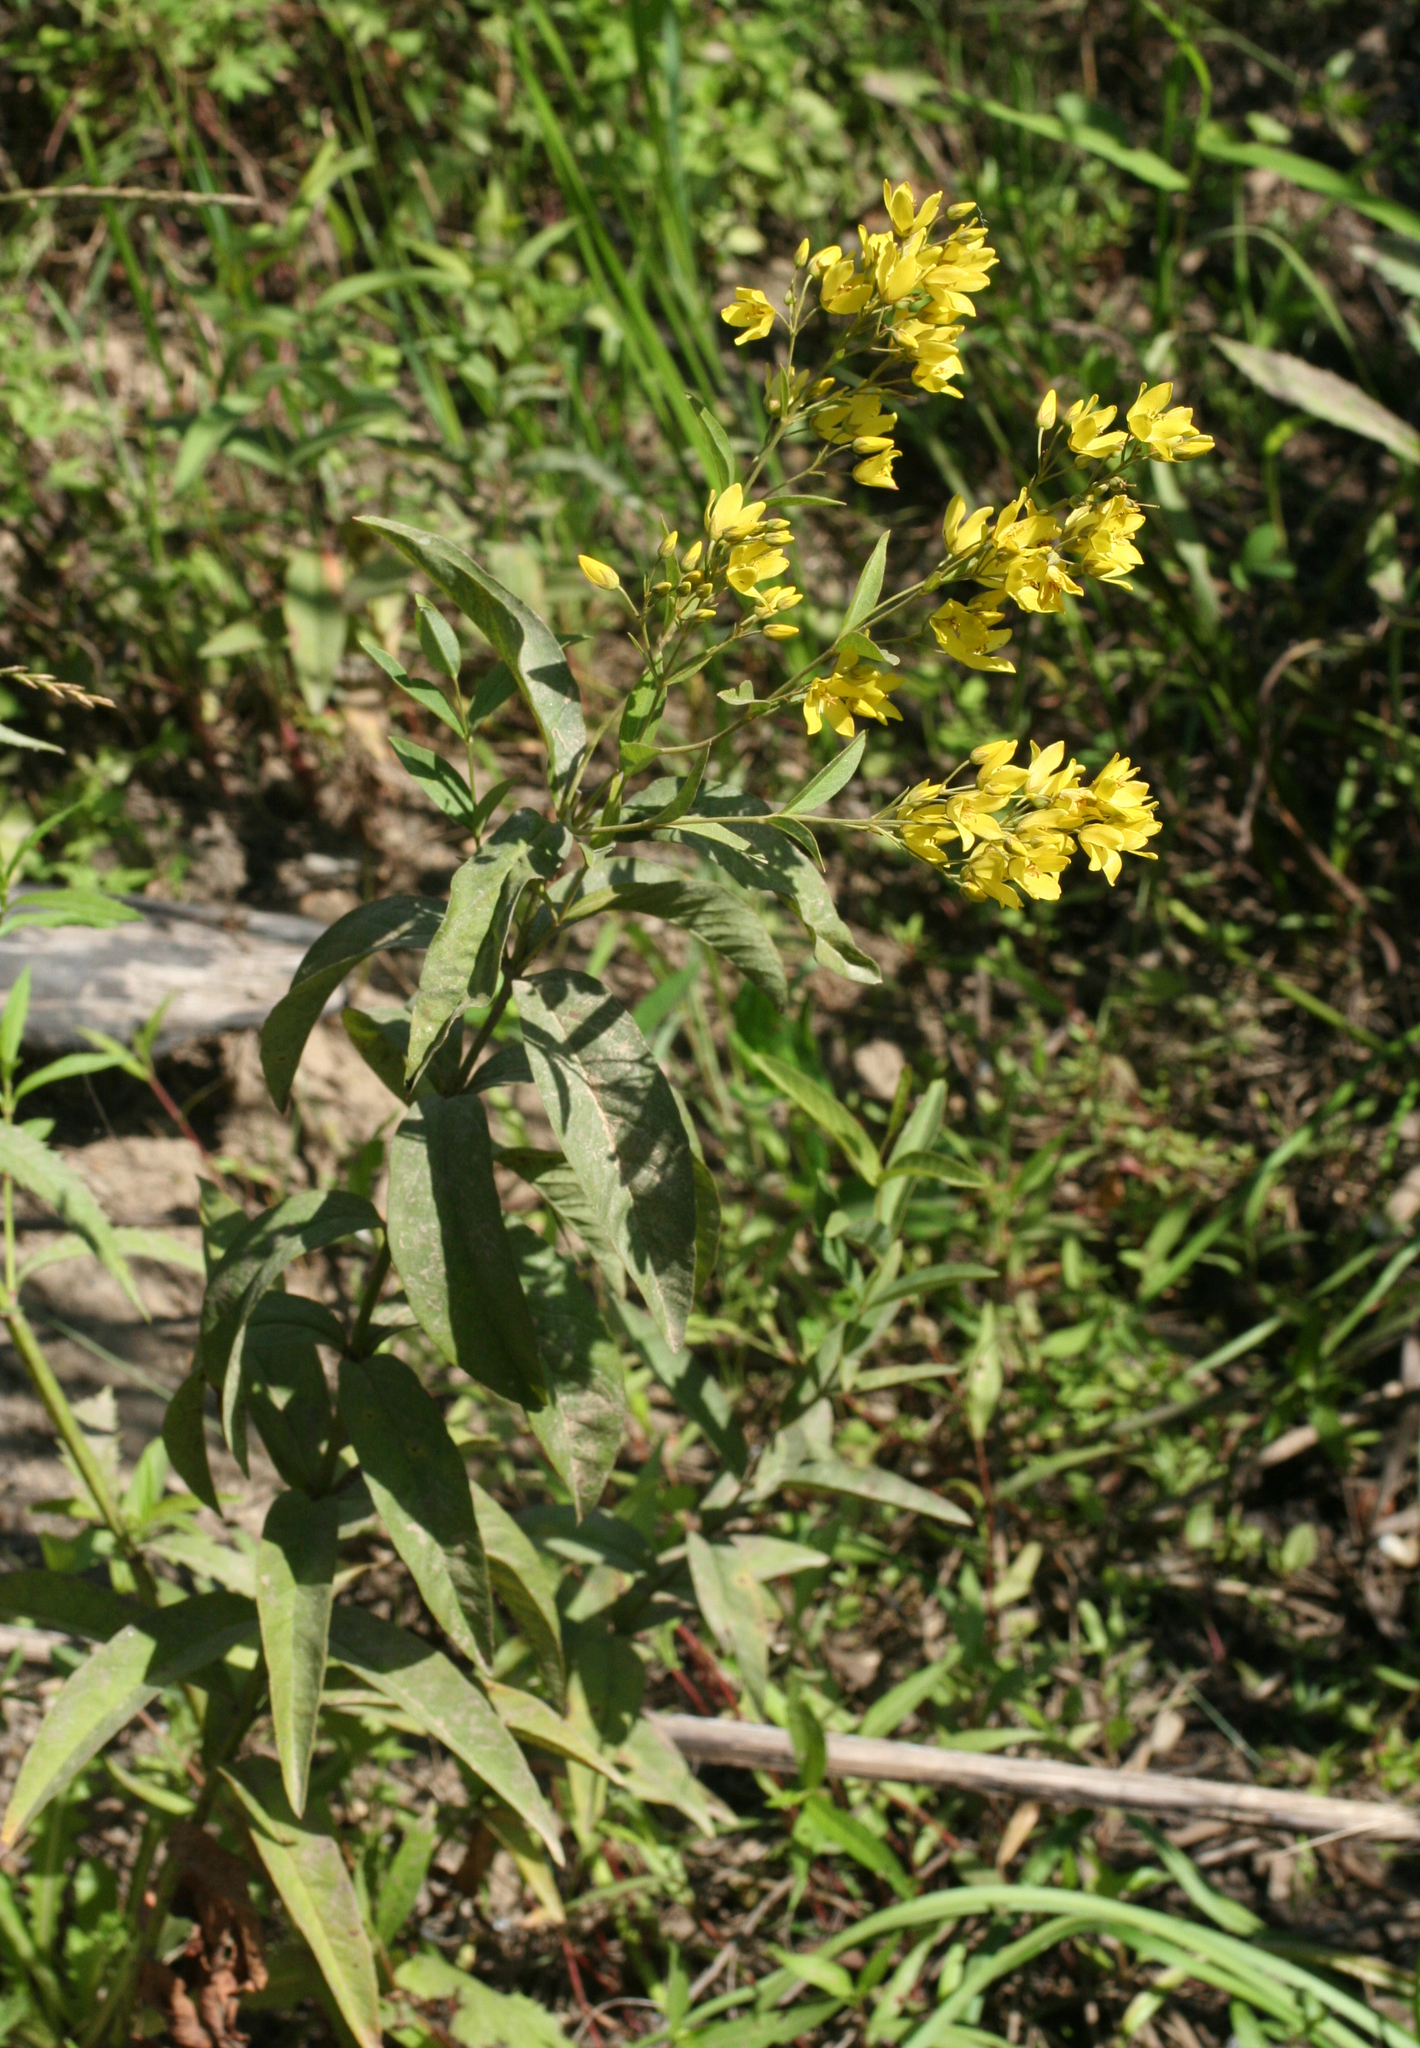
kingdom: Plantae
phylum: Tracheophyta
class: Magnoliopsida
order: Ericales
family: Primulaceae
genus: Lysimachia
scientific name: Lysimachia davurica
